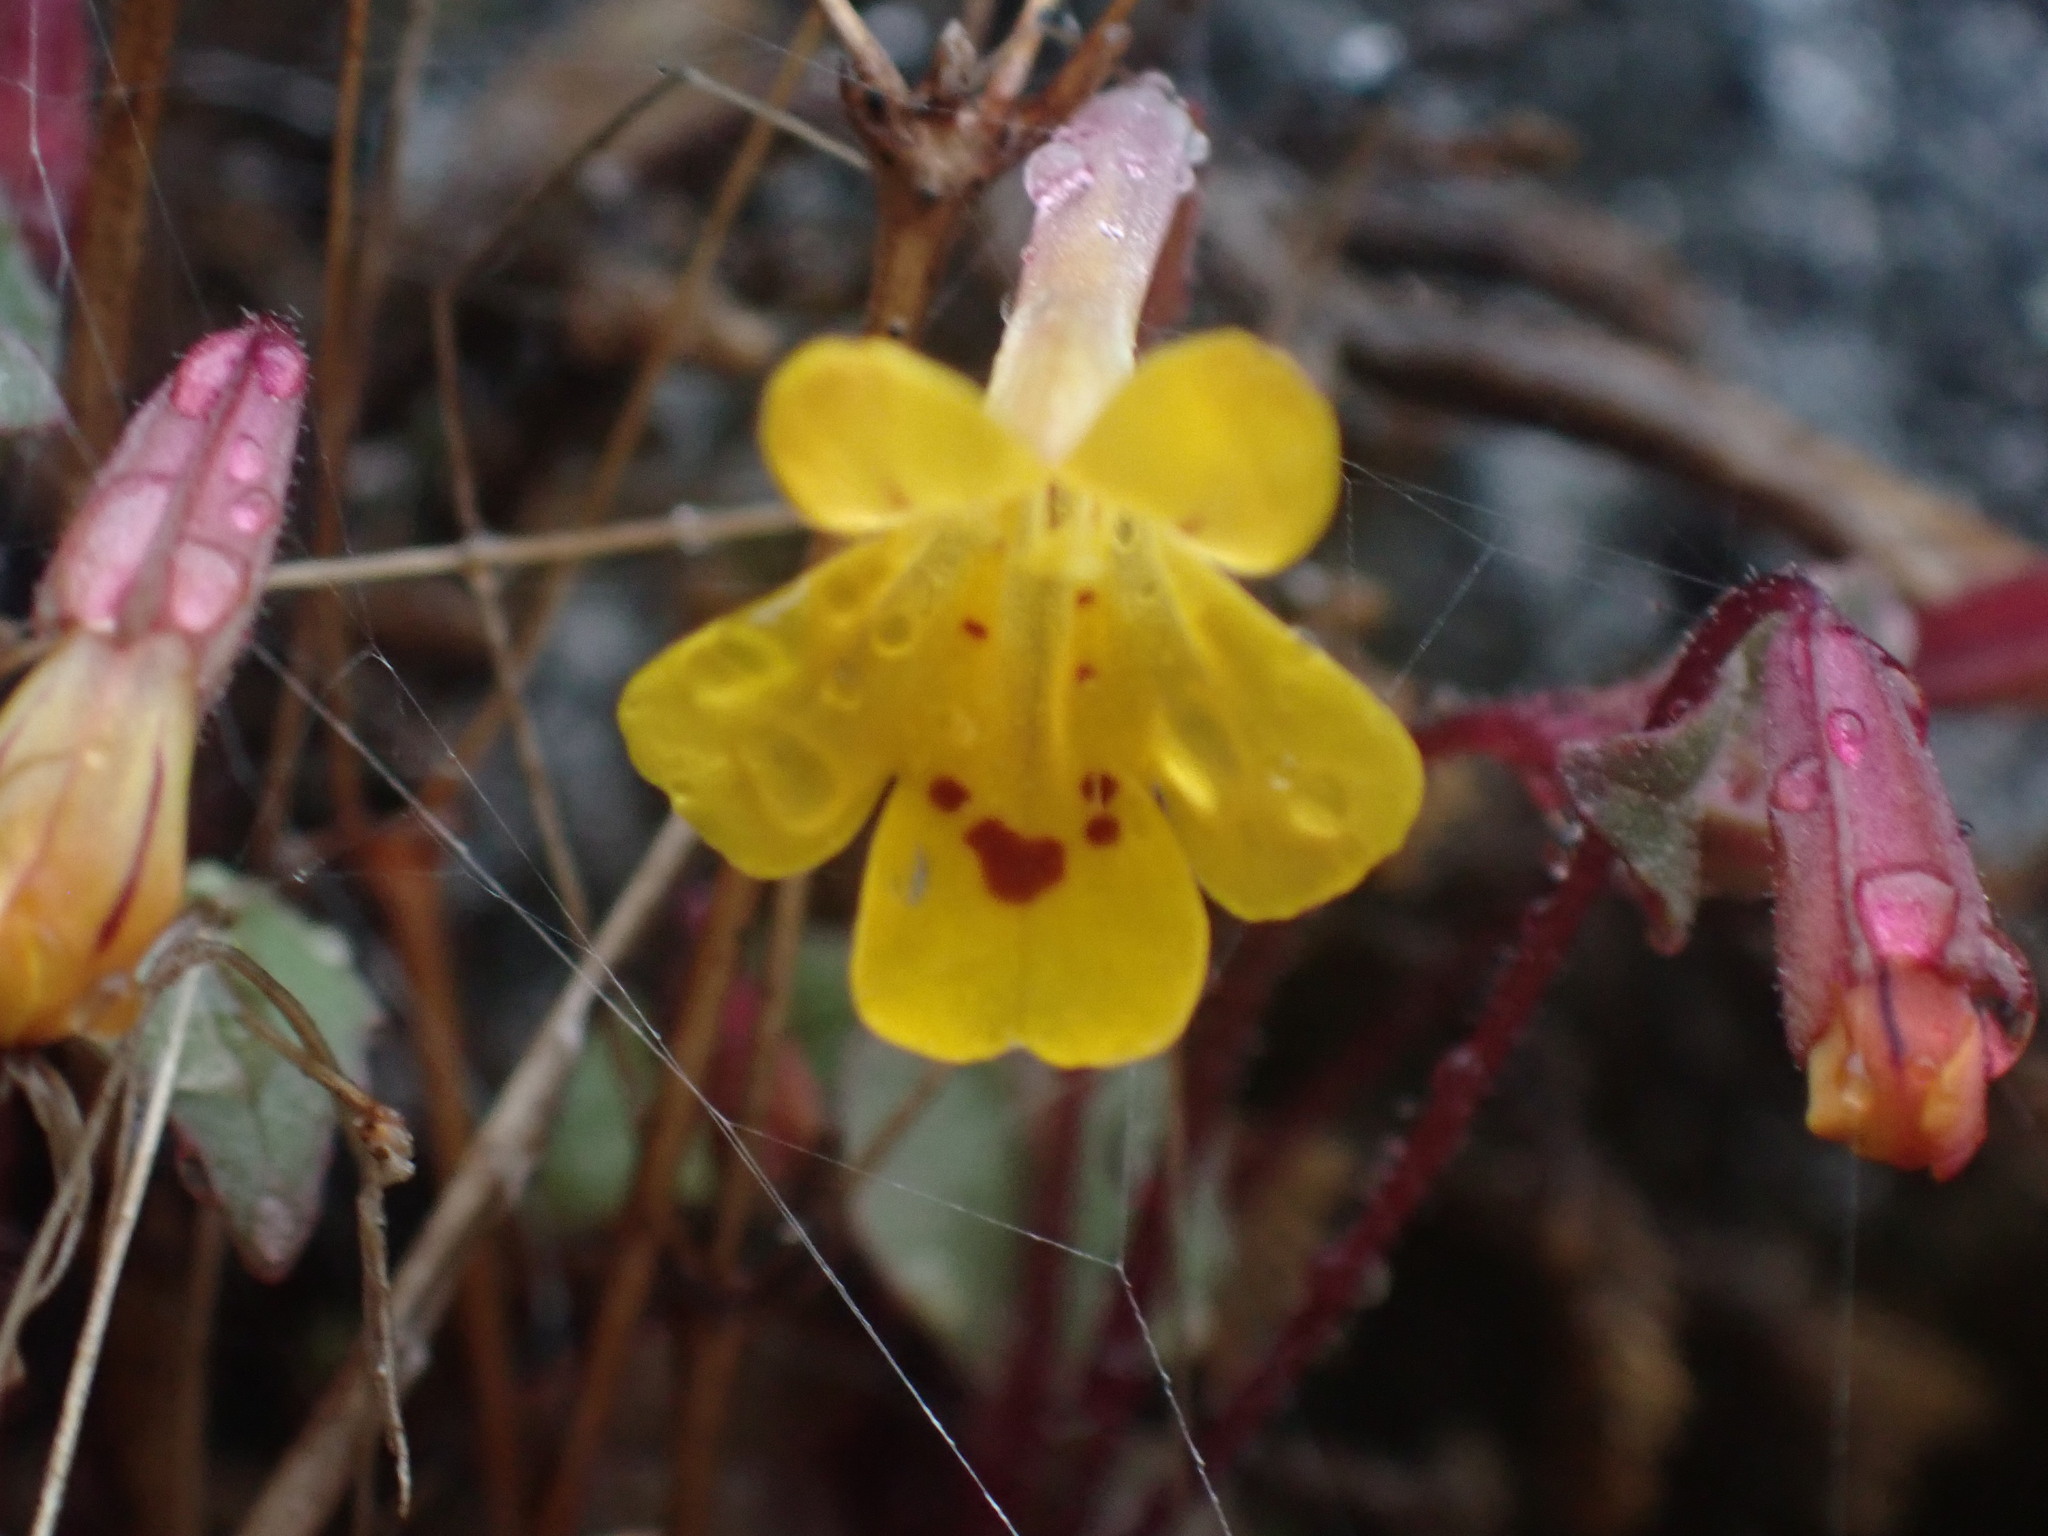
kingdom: Plantae
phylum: Tracheophyta
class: Magnoliopsida
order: Lamiales
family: Phrymaceae
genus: Erythranthe
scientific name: Erythranthe alsinoides
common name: Chickweed monkeyflower
